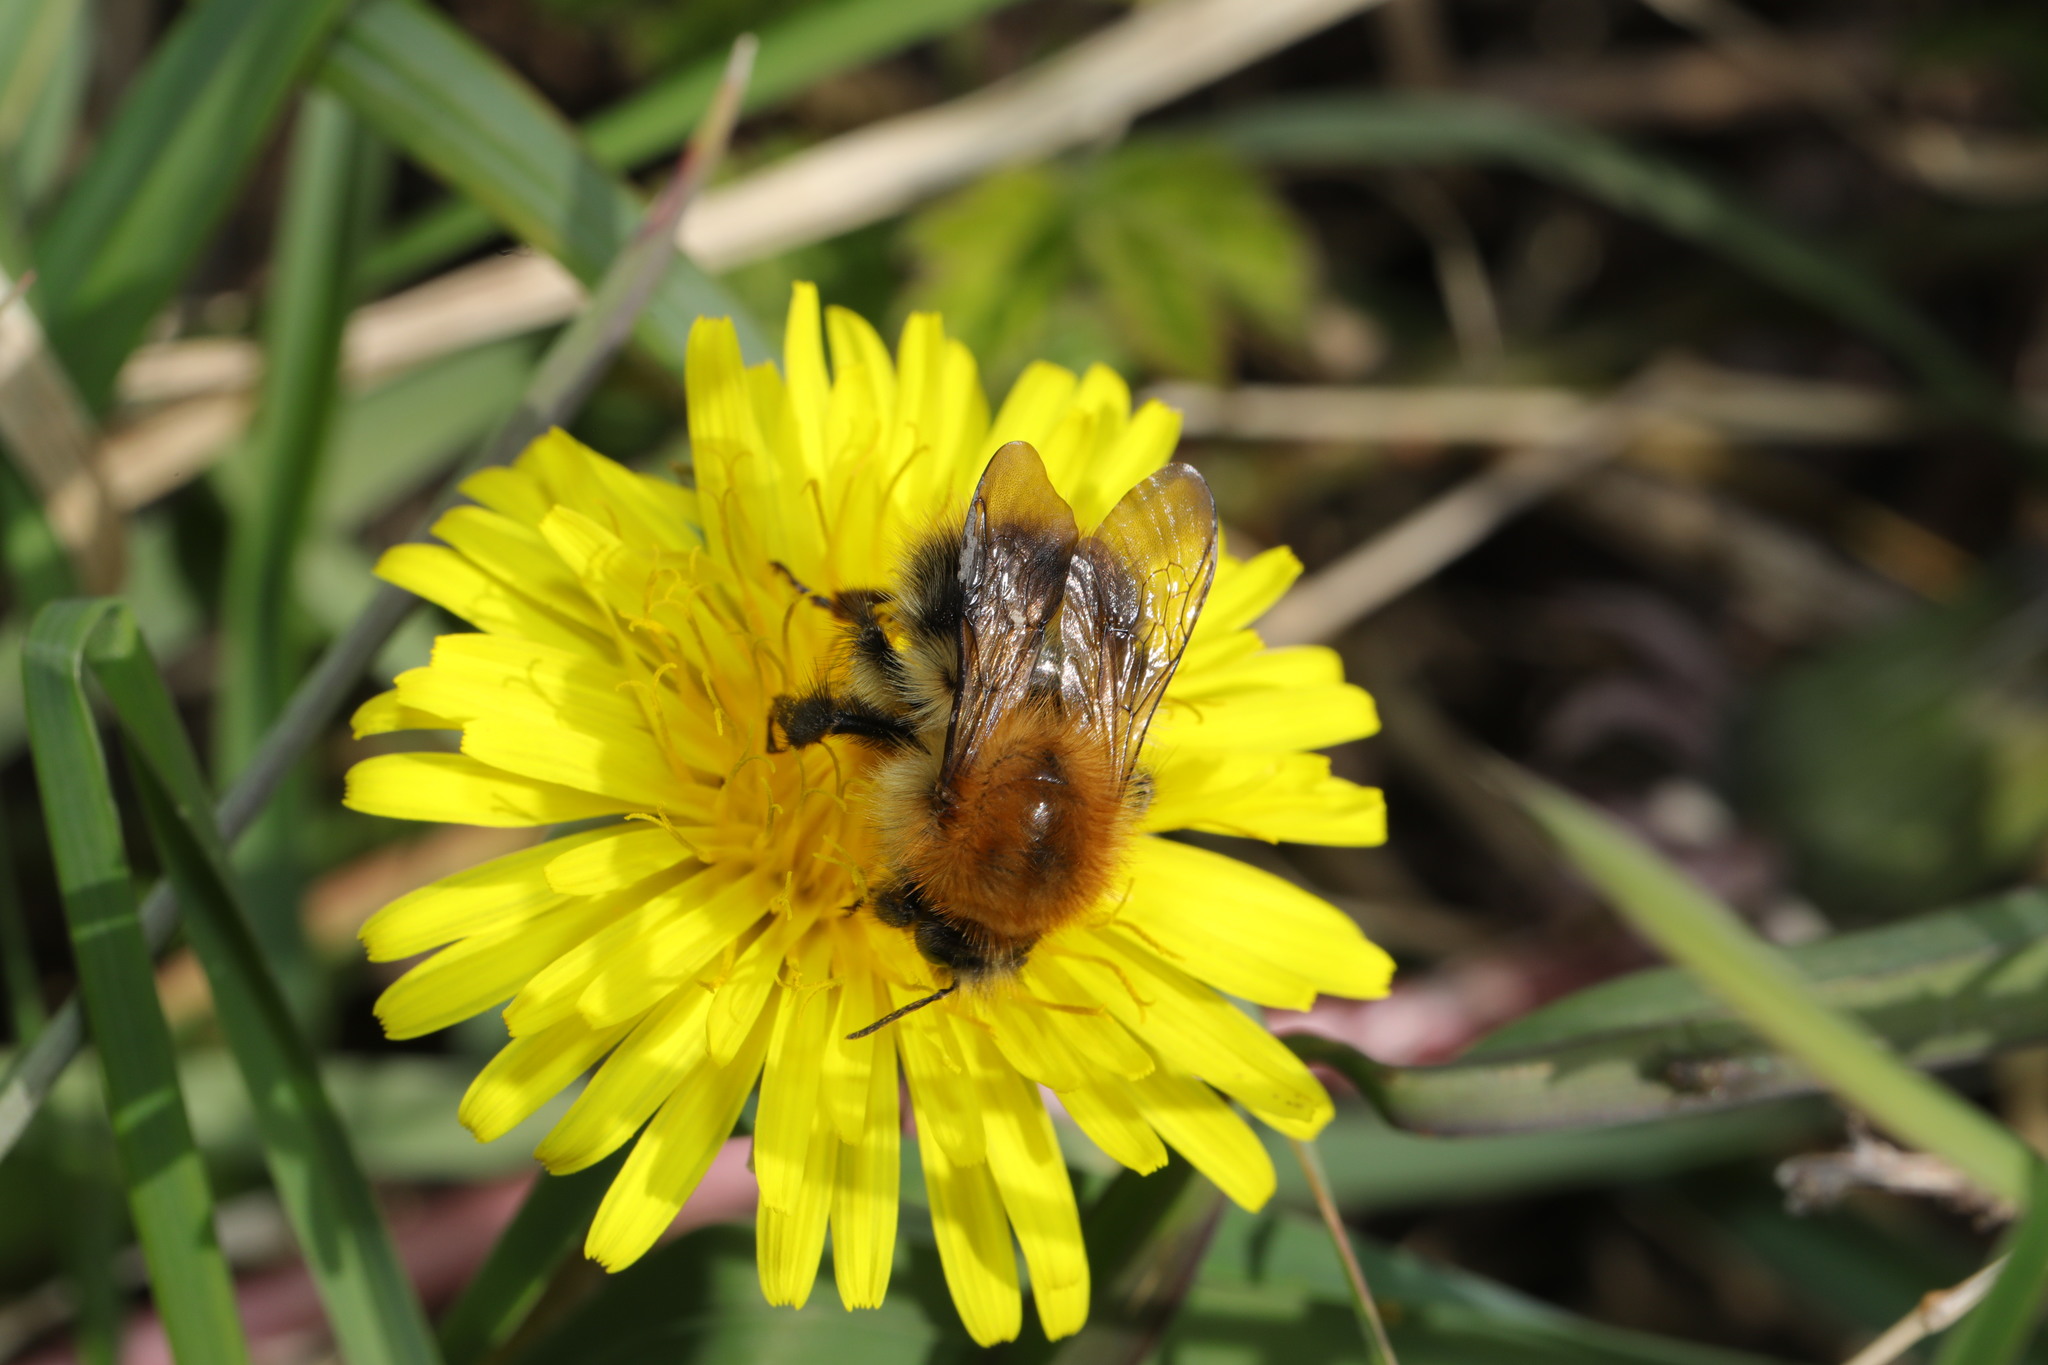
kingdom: Animalia
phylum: Arthropoda
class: Insecta
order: Hymenoptera
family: Apidae
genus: Bombus
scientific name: Bombus pascuorum
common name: Common carder bee
